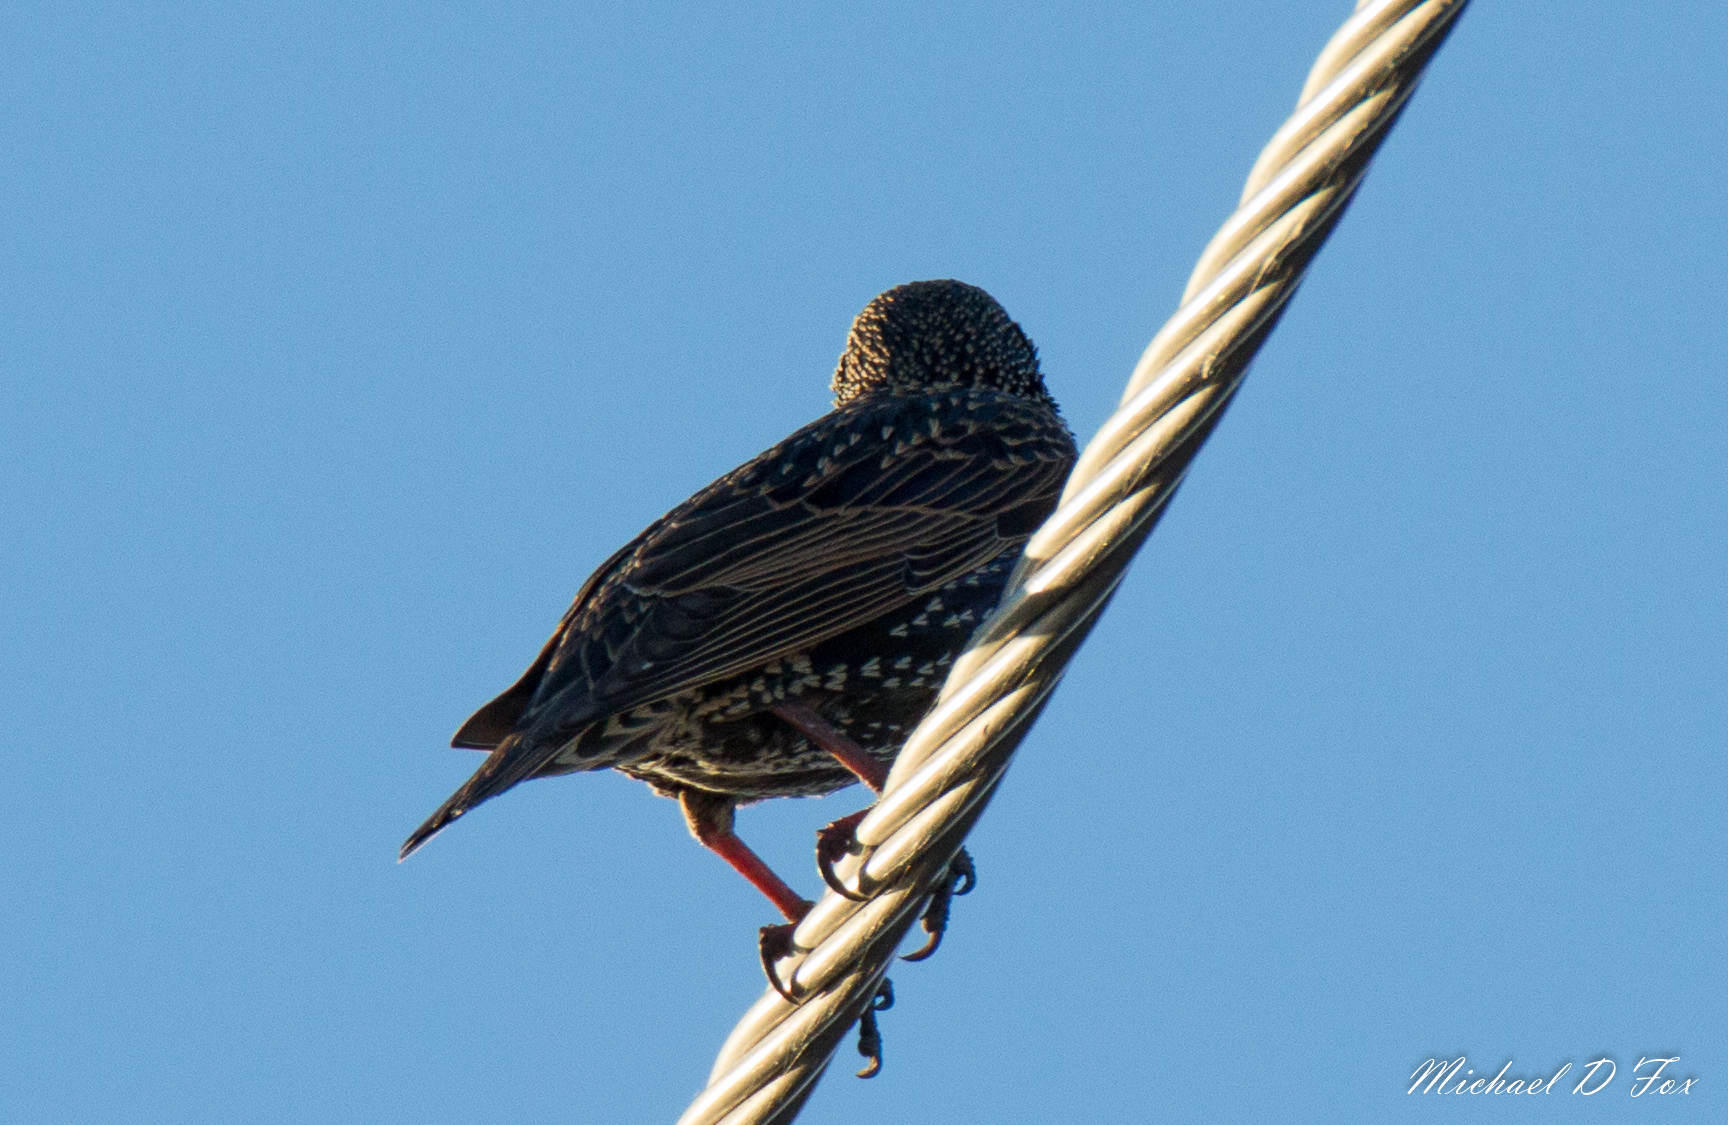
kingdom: Animalia
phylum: Chordata
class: Aves
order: Passeriformes
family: Sturnidae
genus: Sturnus
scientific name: Sturnus vulgaris
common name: Common starling
